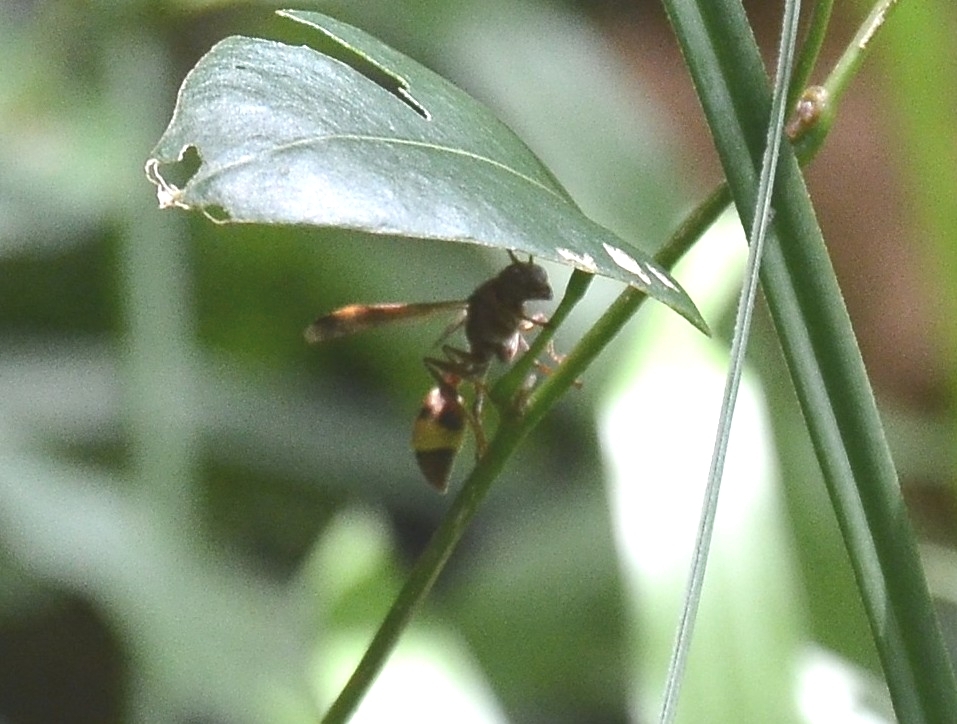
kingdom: Animalia
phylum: Arthropoda
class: Insecta
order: Hymenoptera
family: Vespidae
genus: Ropalidia
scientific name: Ropalidia
